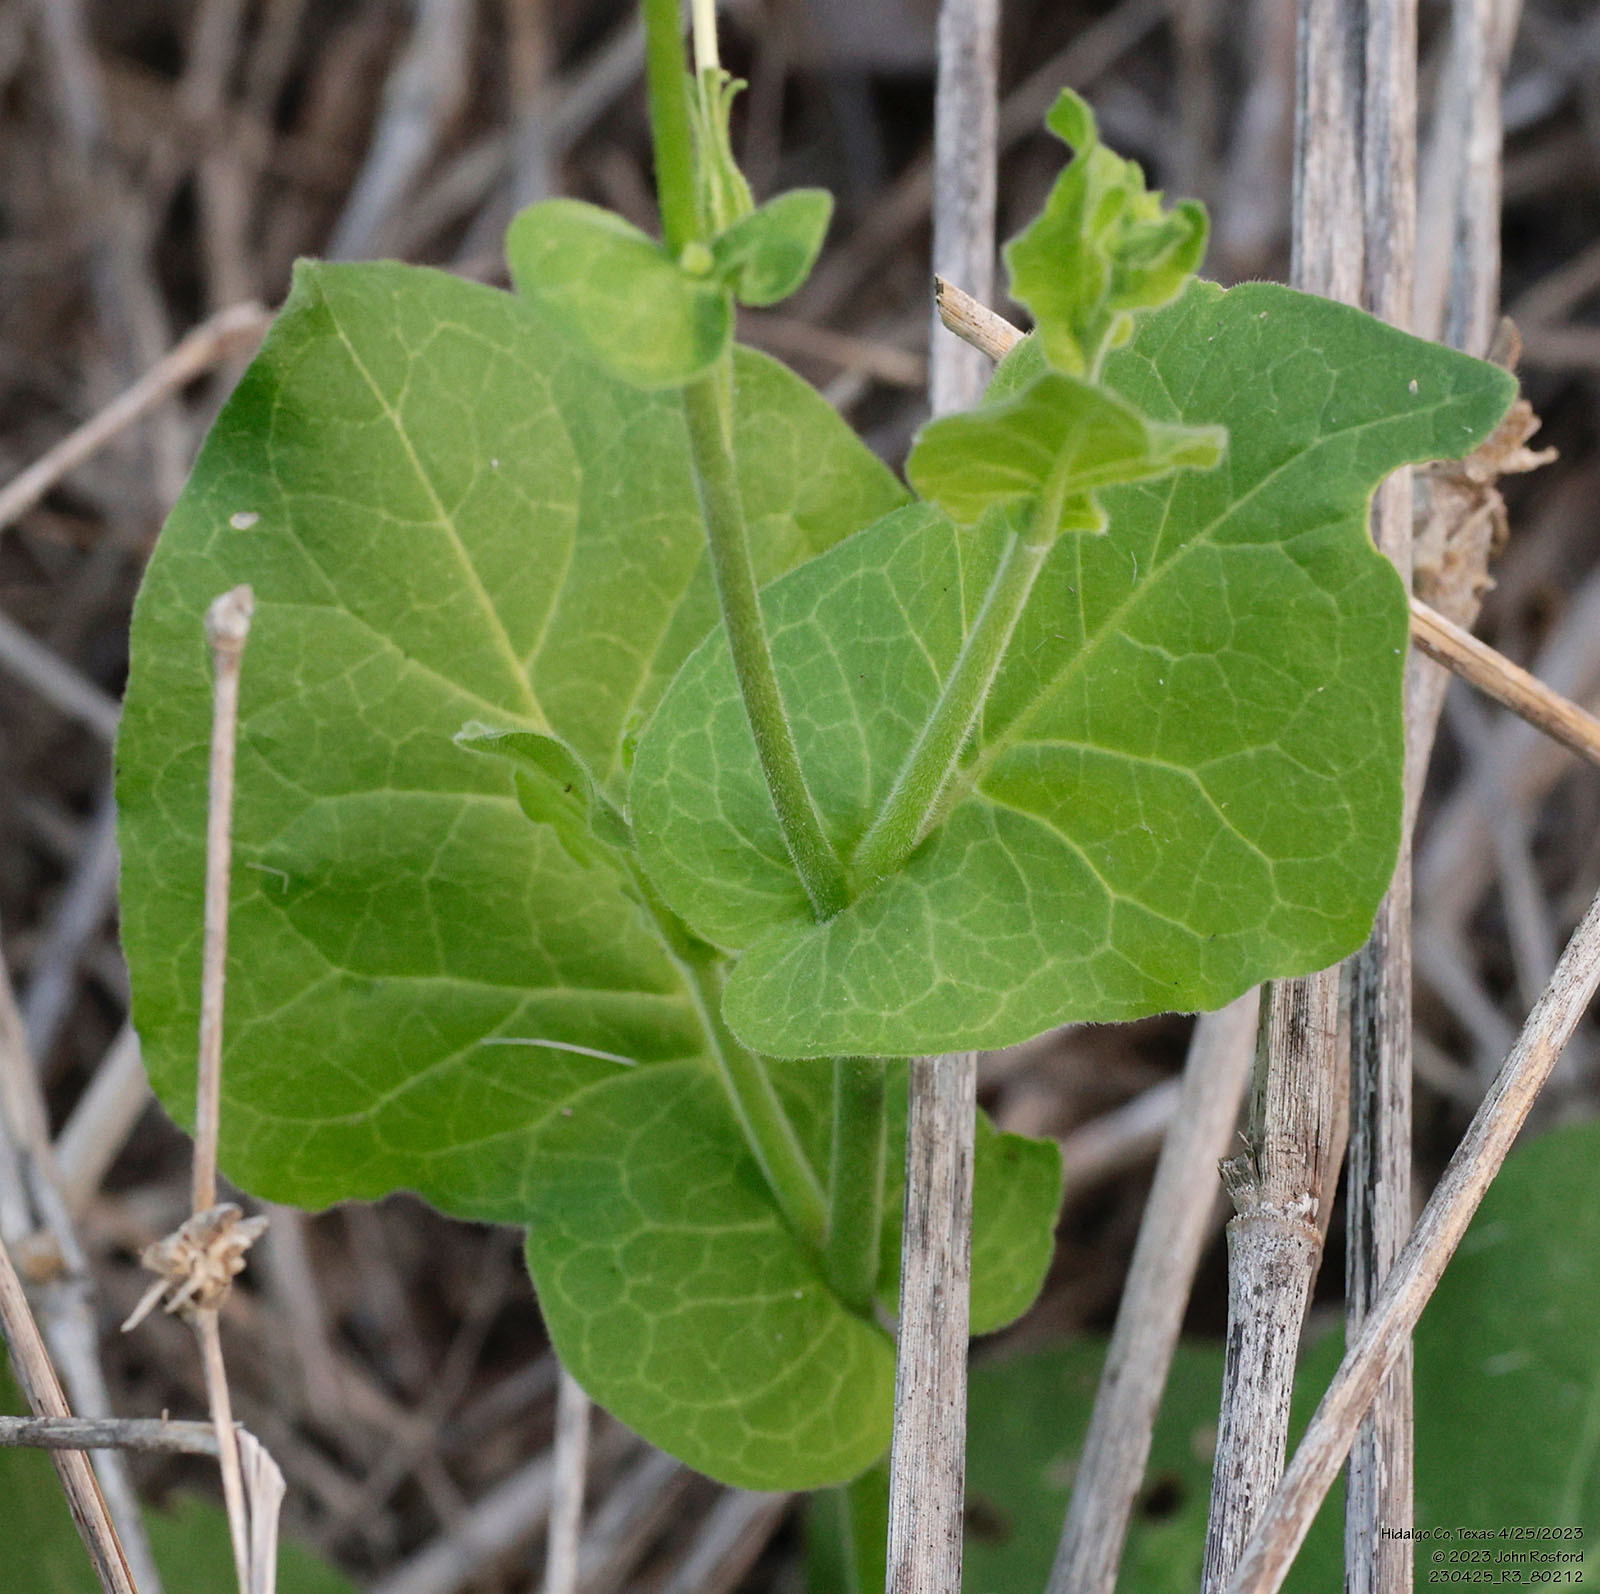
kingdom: Plantae
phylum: Tracheophyta
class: Magnoliopsida
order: Solanales
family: Solanaceae
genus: Nicotiana
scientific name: Nicotiana repanda
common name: Fiddle-leaf tobacco
